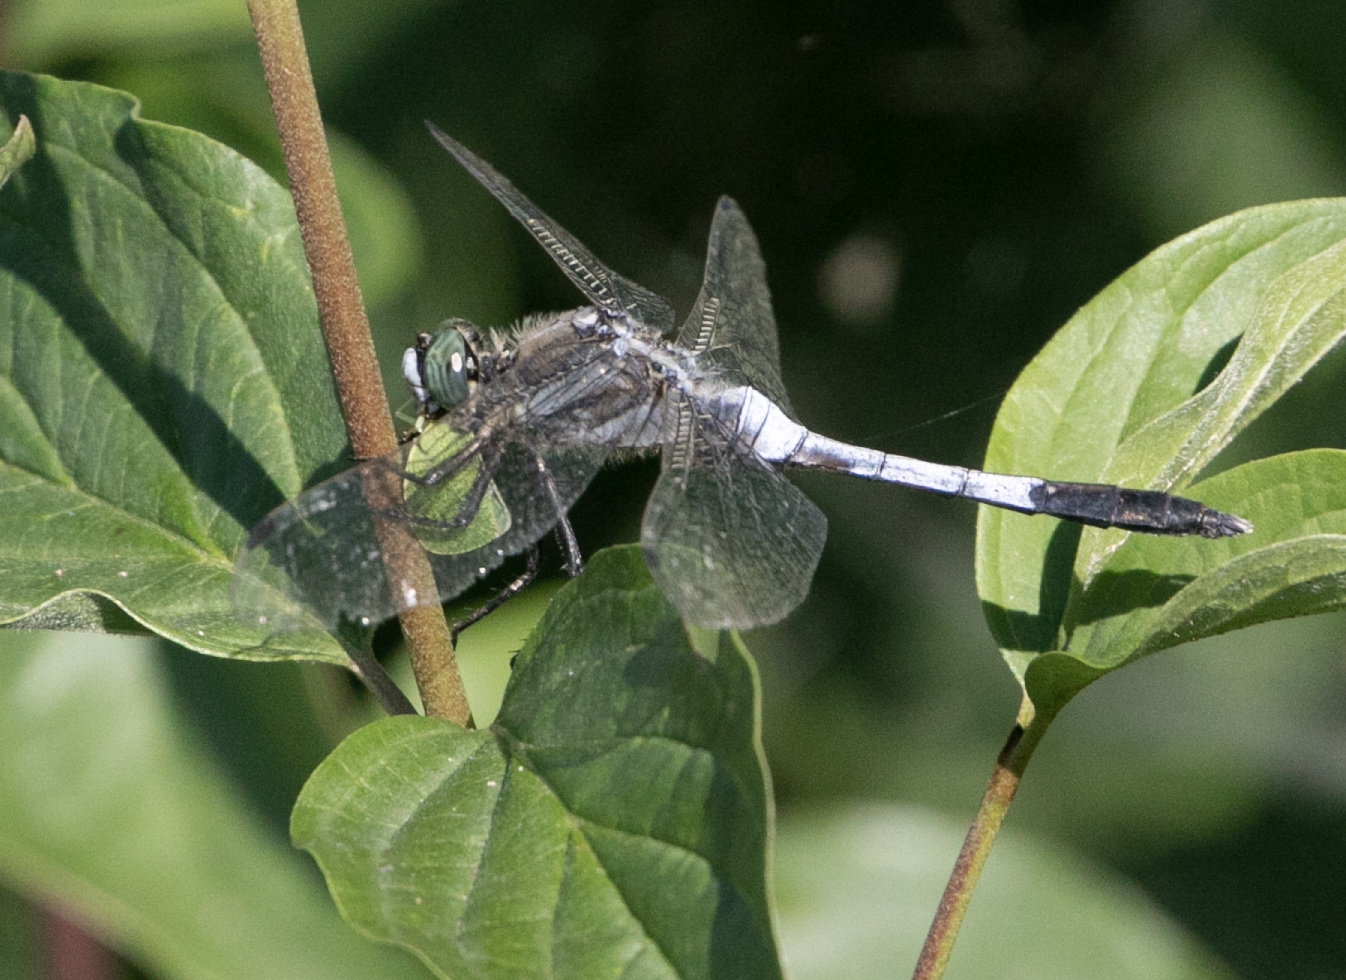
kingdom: Animalia
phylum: Arthropoda
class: Insecta
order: Odonata
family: Libellulidae
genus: Orthetrum
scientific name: Orthetrum albistylum
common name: White-tailed skimmer
